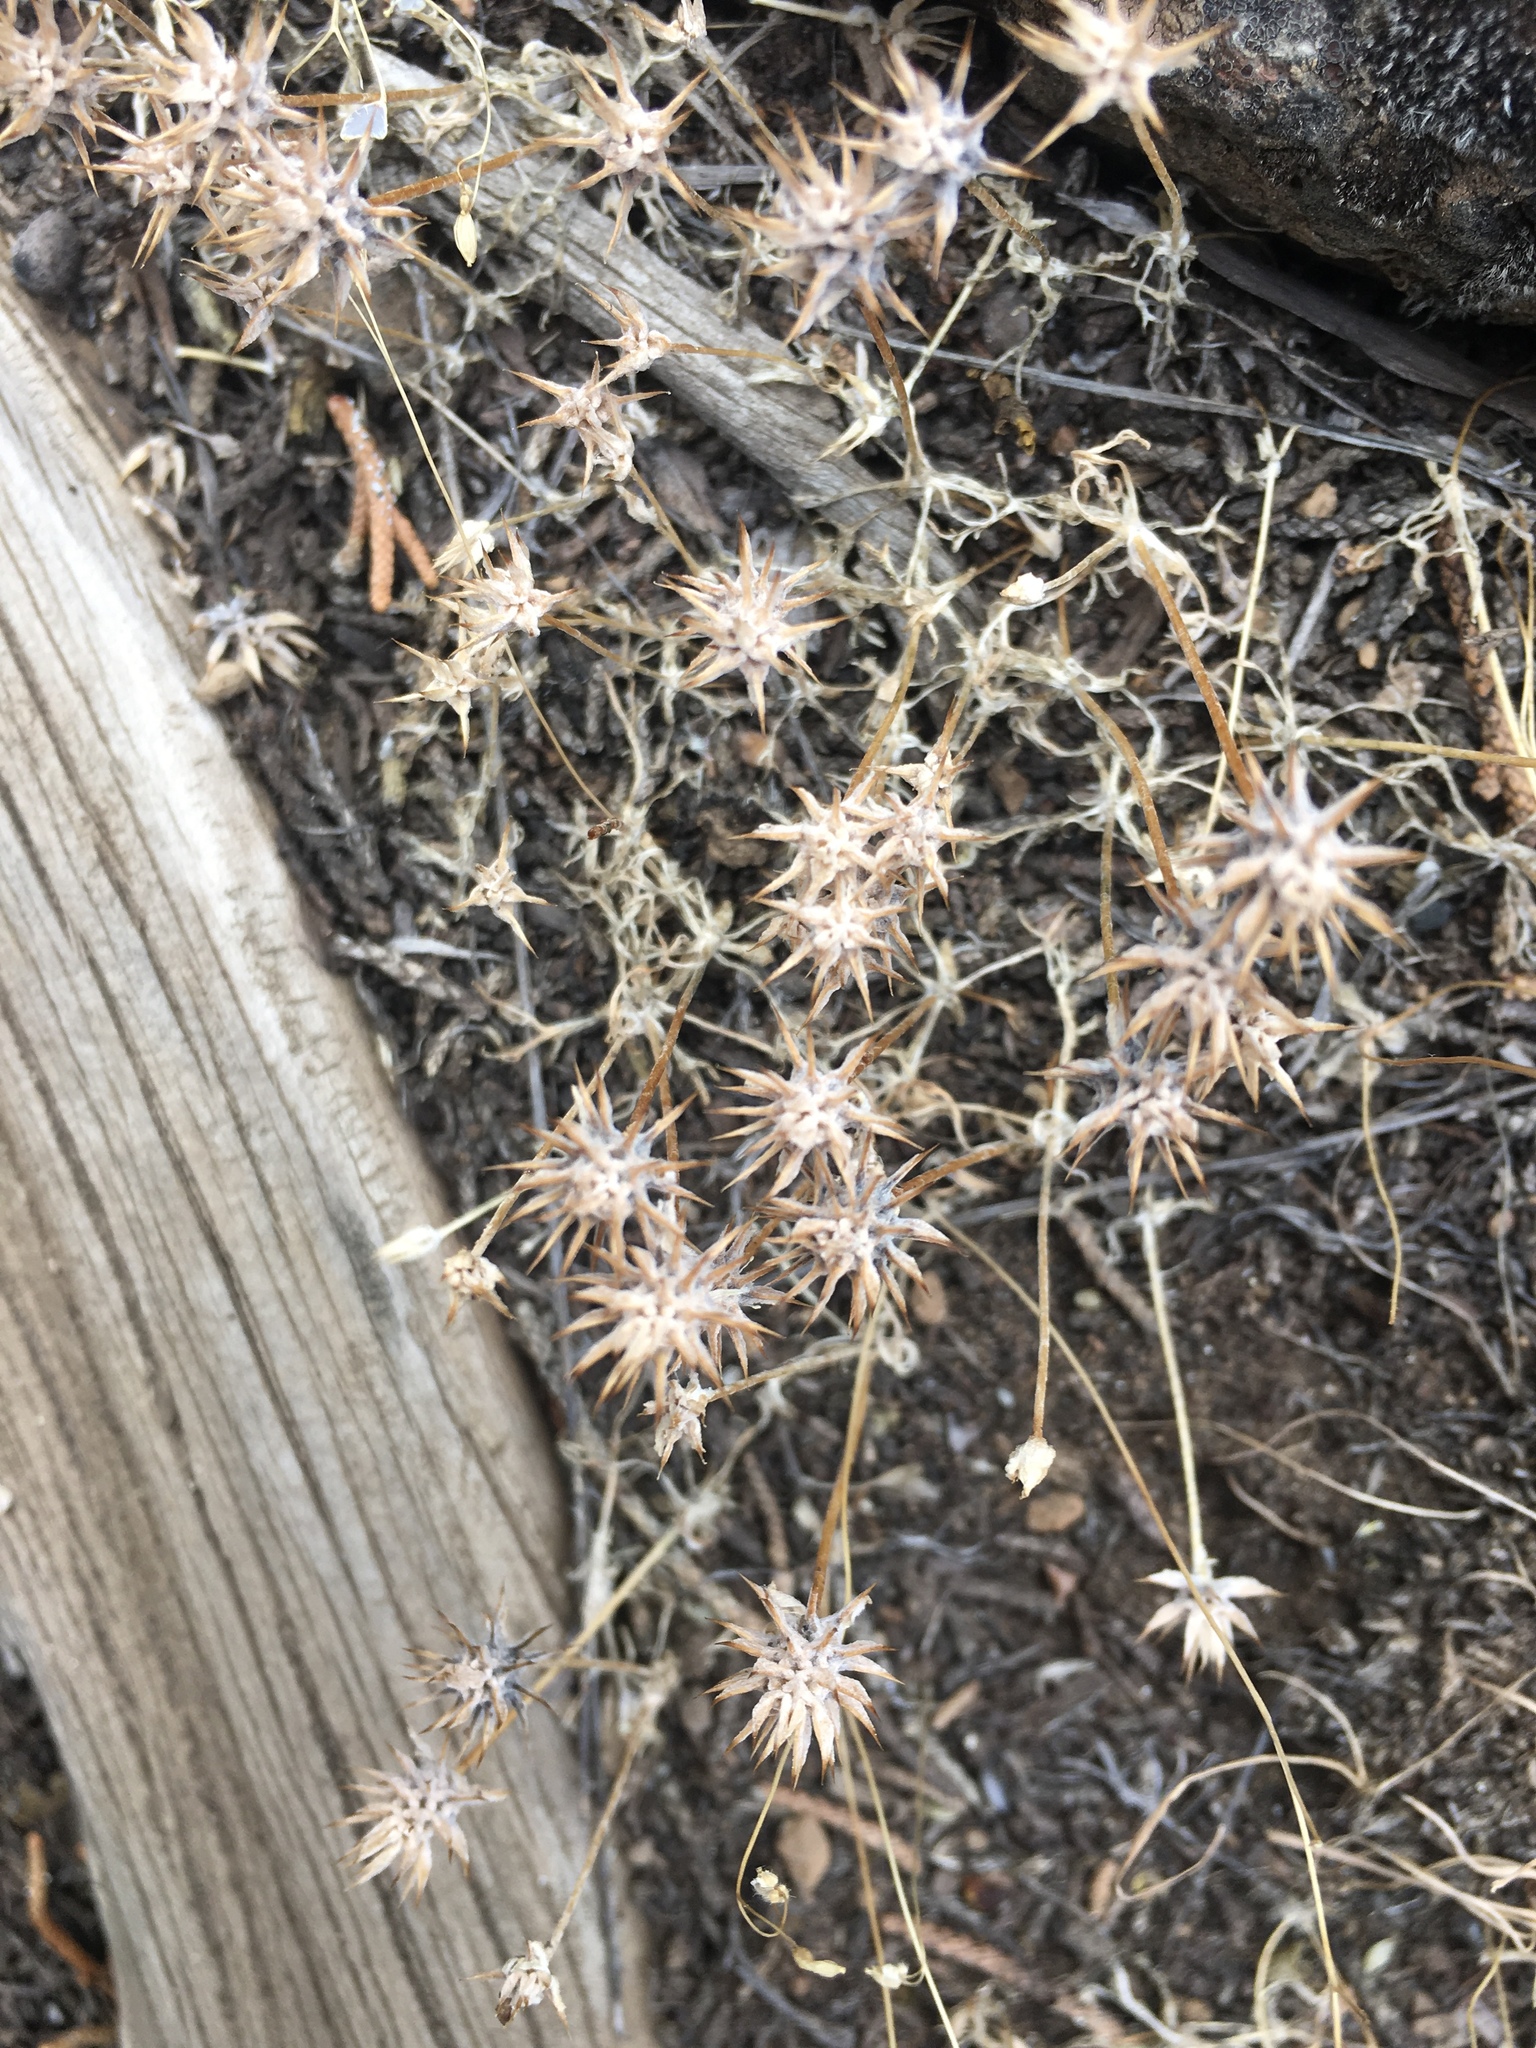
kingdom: Plantae
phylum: Tracheophyta
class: Magnoliopsida
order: Ranunculales
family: Ranunculaceae
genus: Ceratocephala
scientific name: Ceratocephala orthoceras
